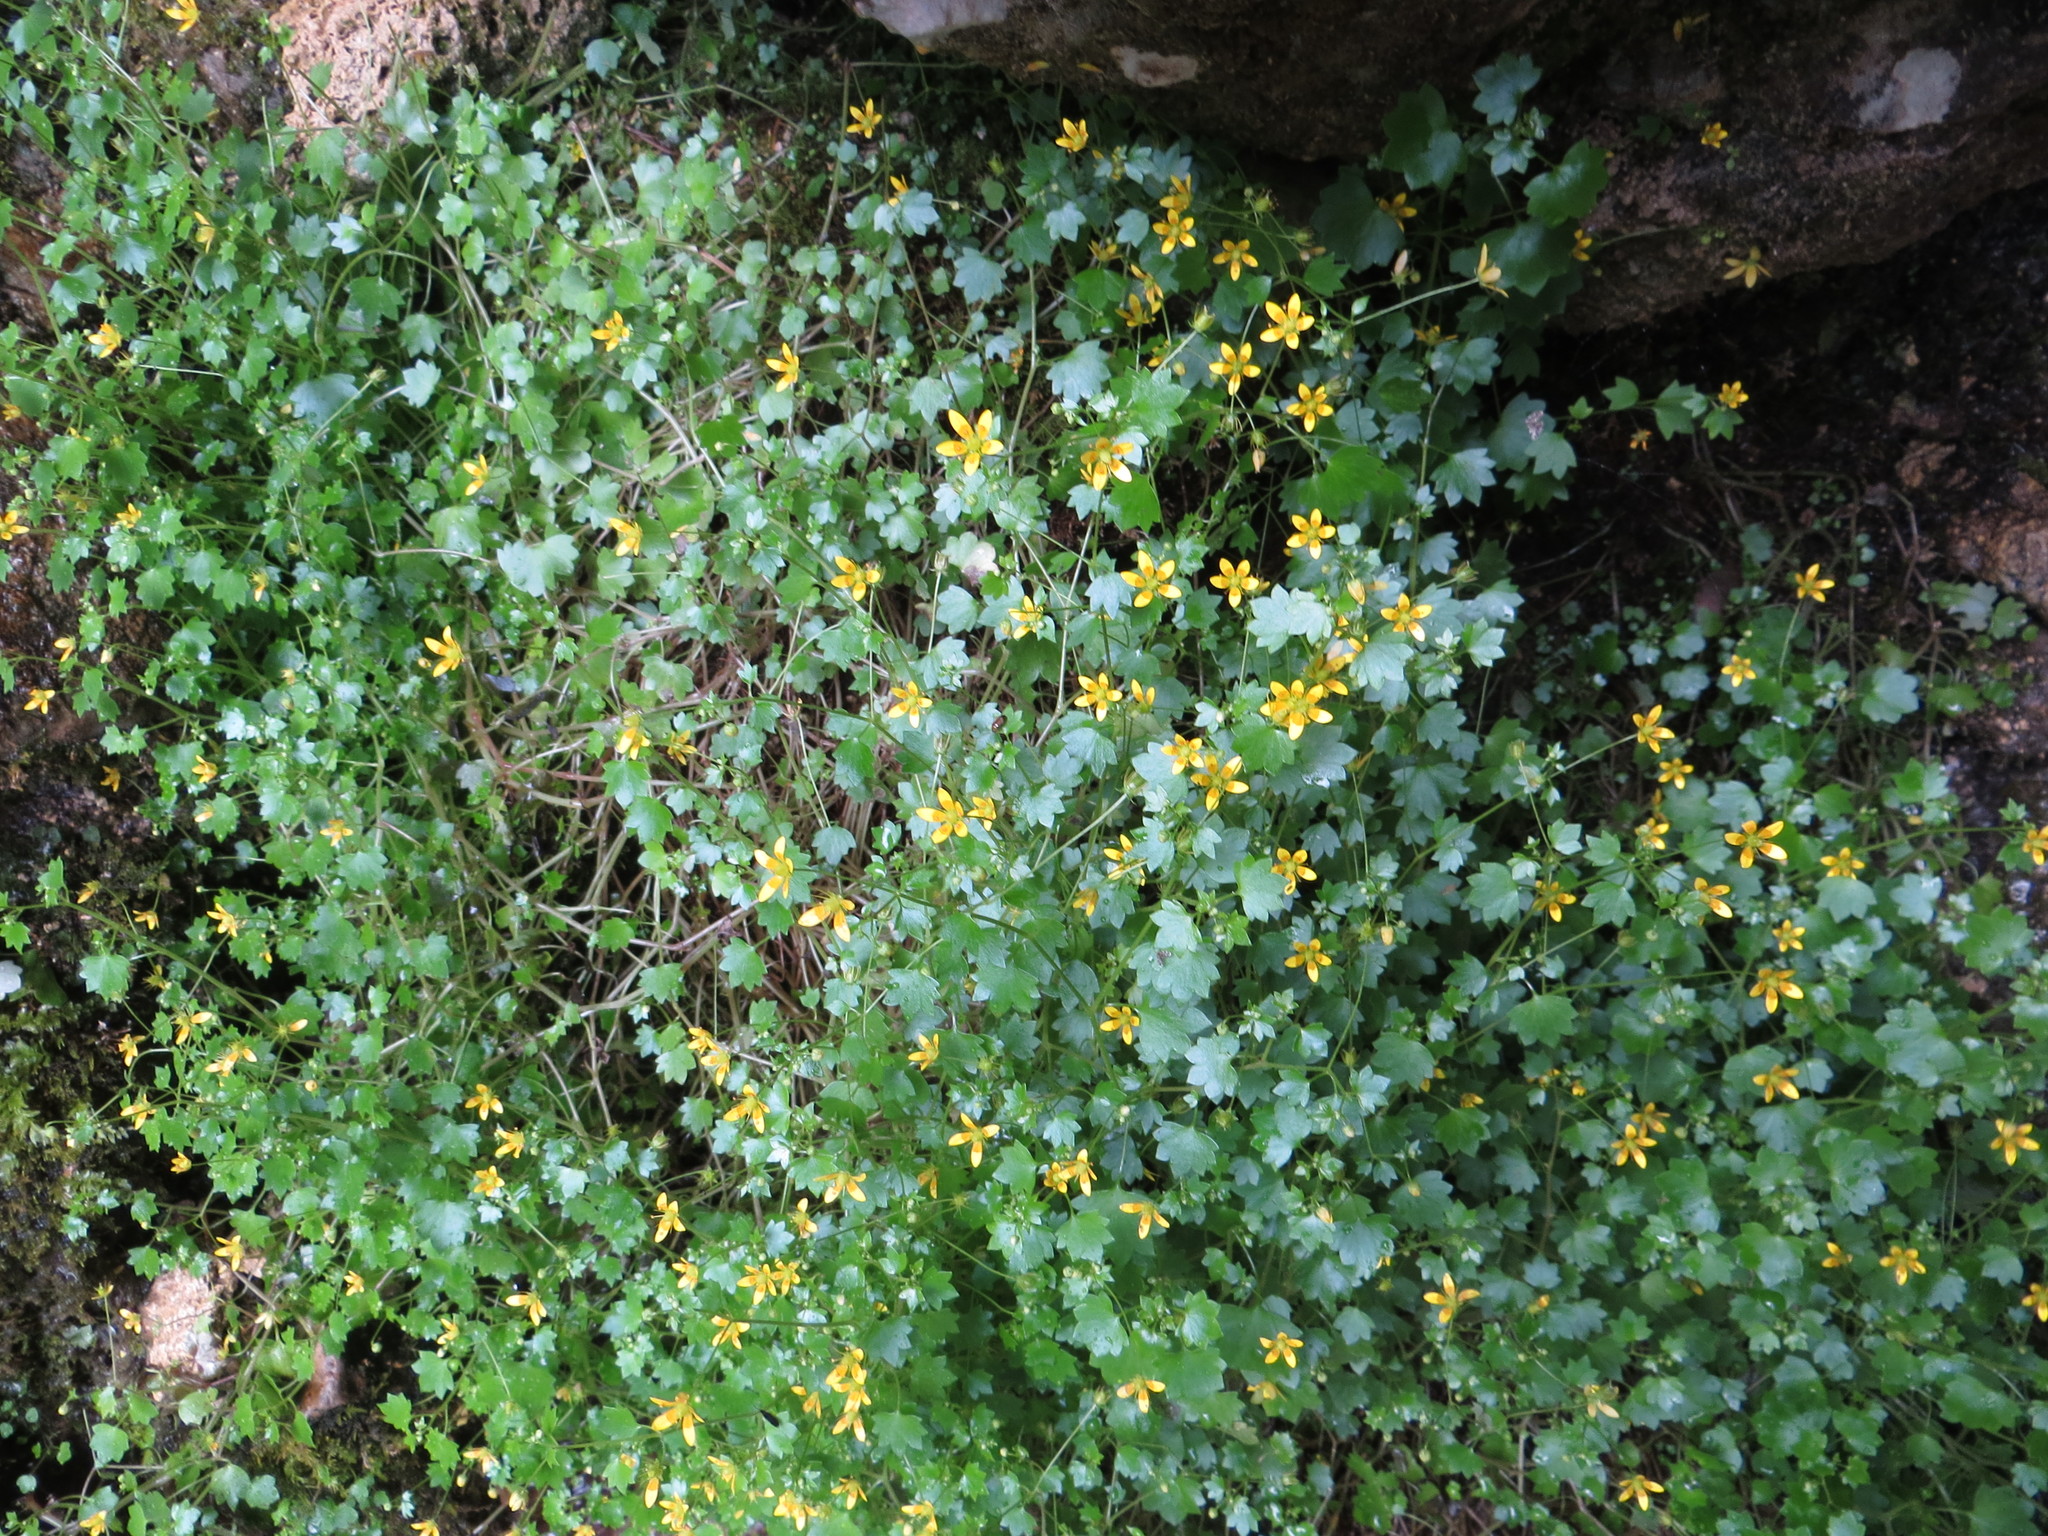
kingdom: Plantae
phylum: Tracheophyta
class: Magnoliopsida
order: Saxifragales
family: Saxifragaceae
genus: Saxifraga
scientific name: Saxifraga cymbalaria
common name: Celandine saxifrage
